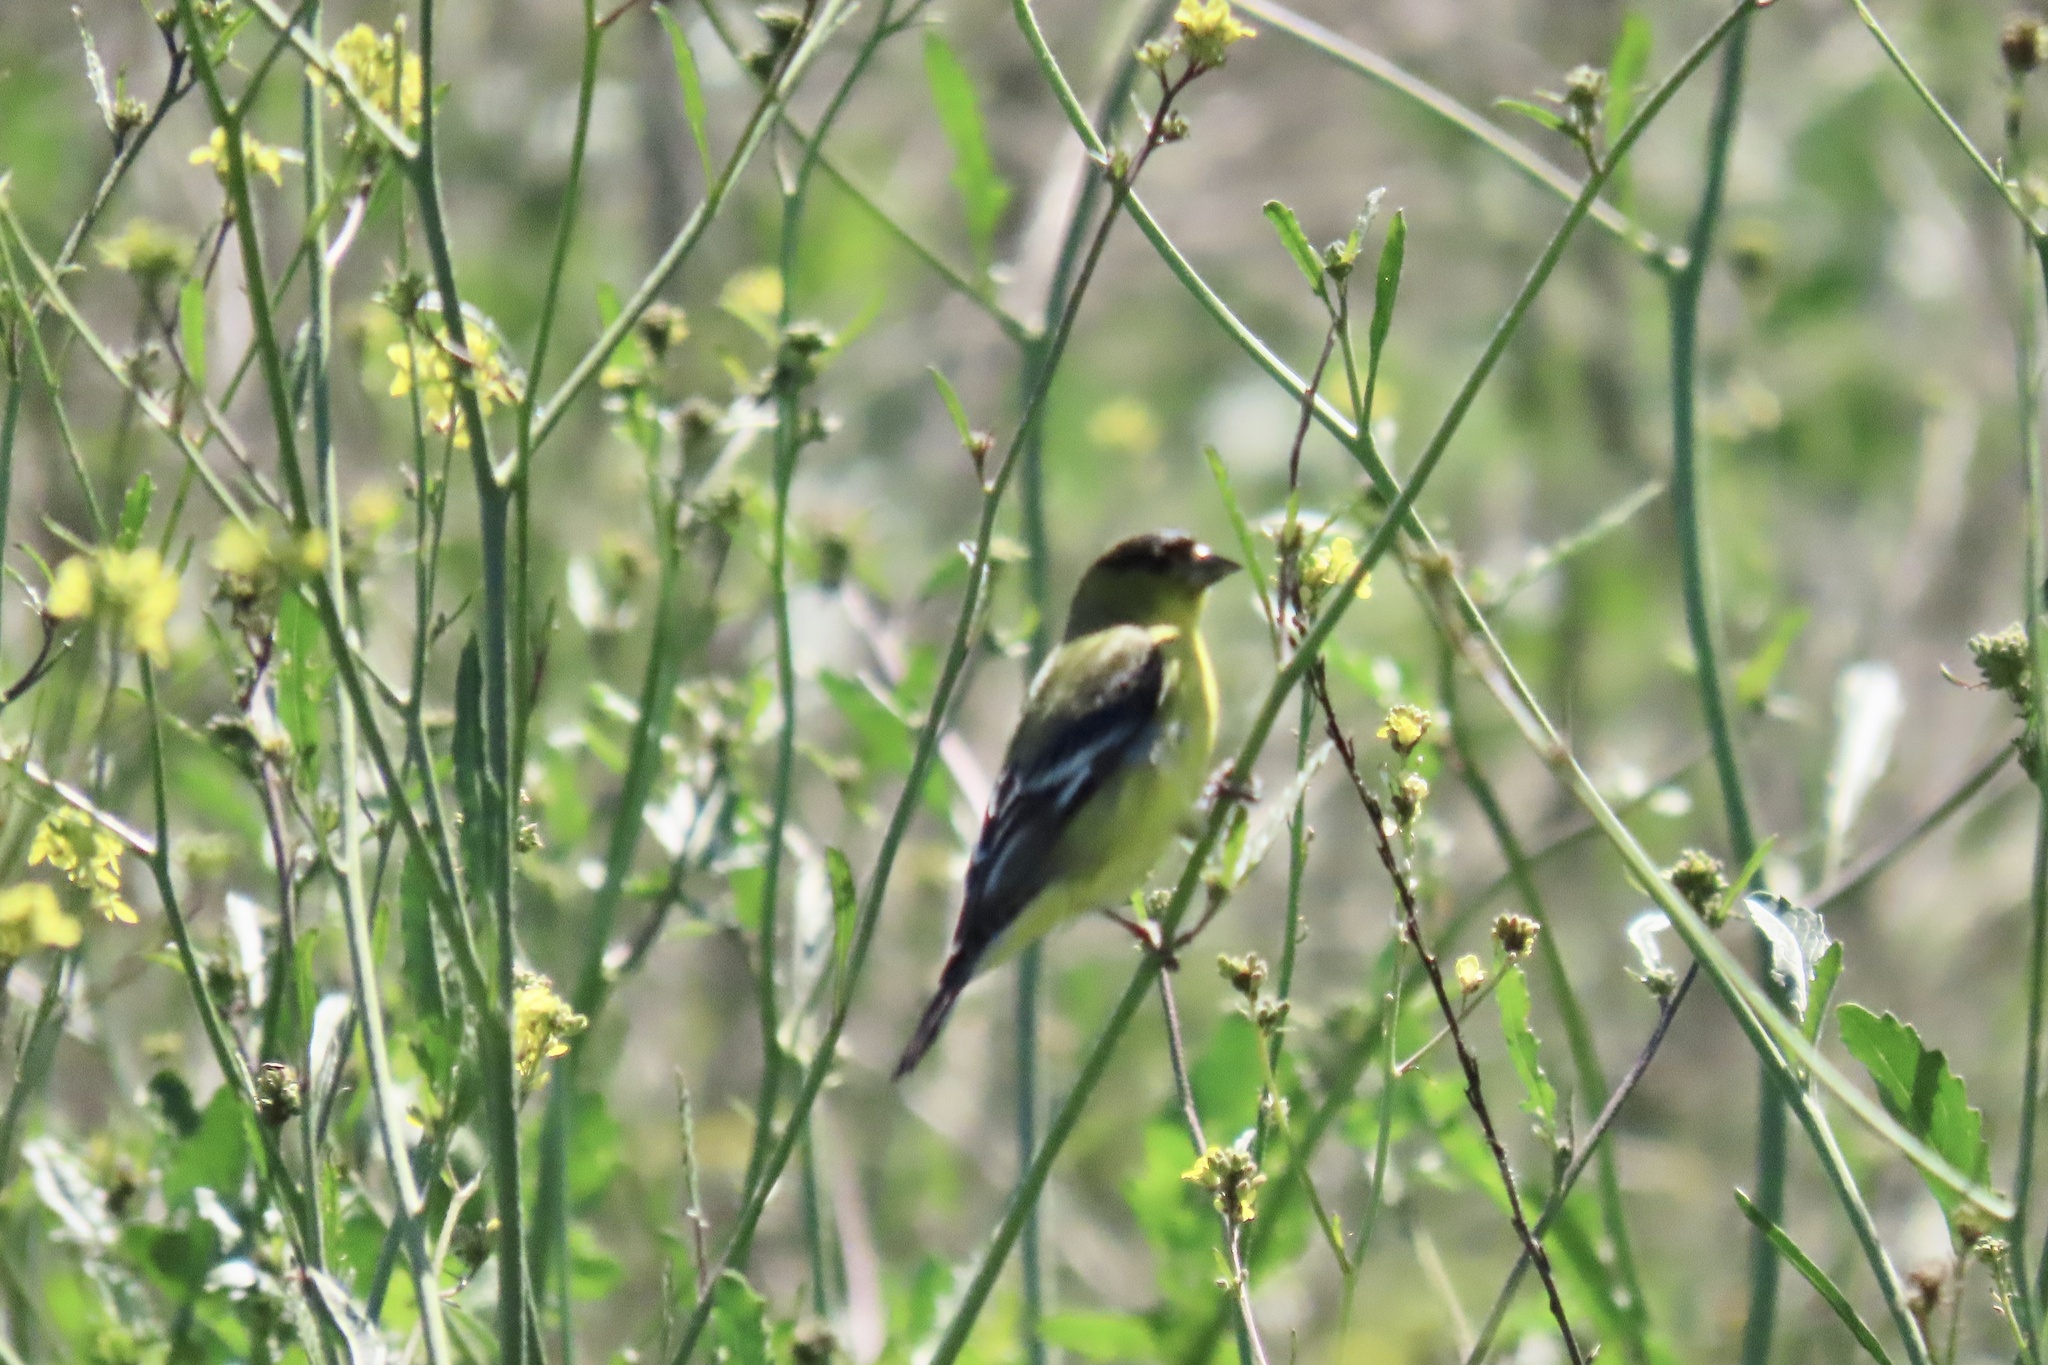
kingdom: Animalia
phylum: Chordata
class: Aves
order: Passeriformes
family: Fringillidae
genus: Spinus
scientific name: Spinus psaltria
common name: Lesser goldfinch
